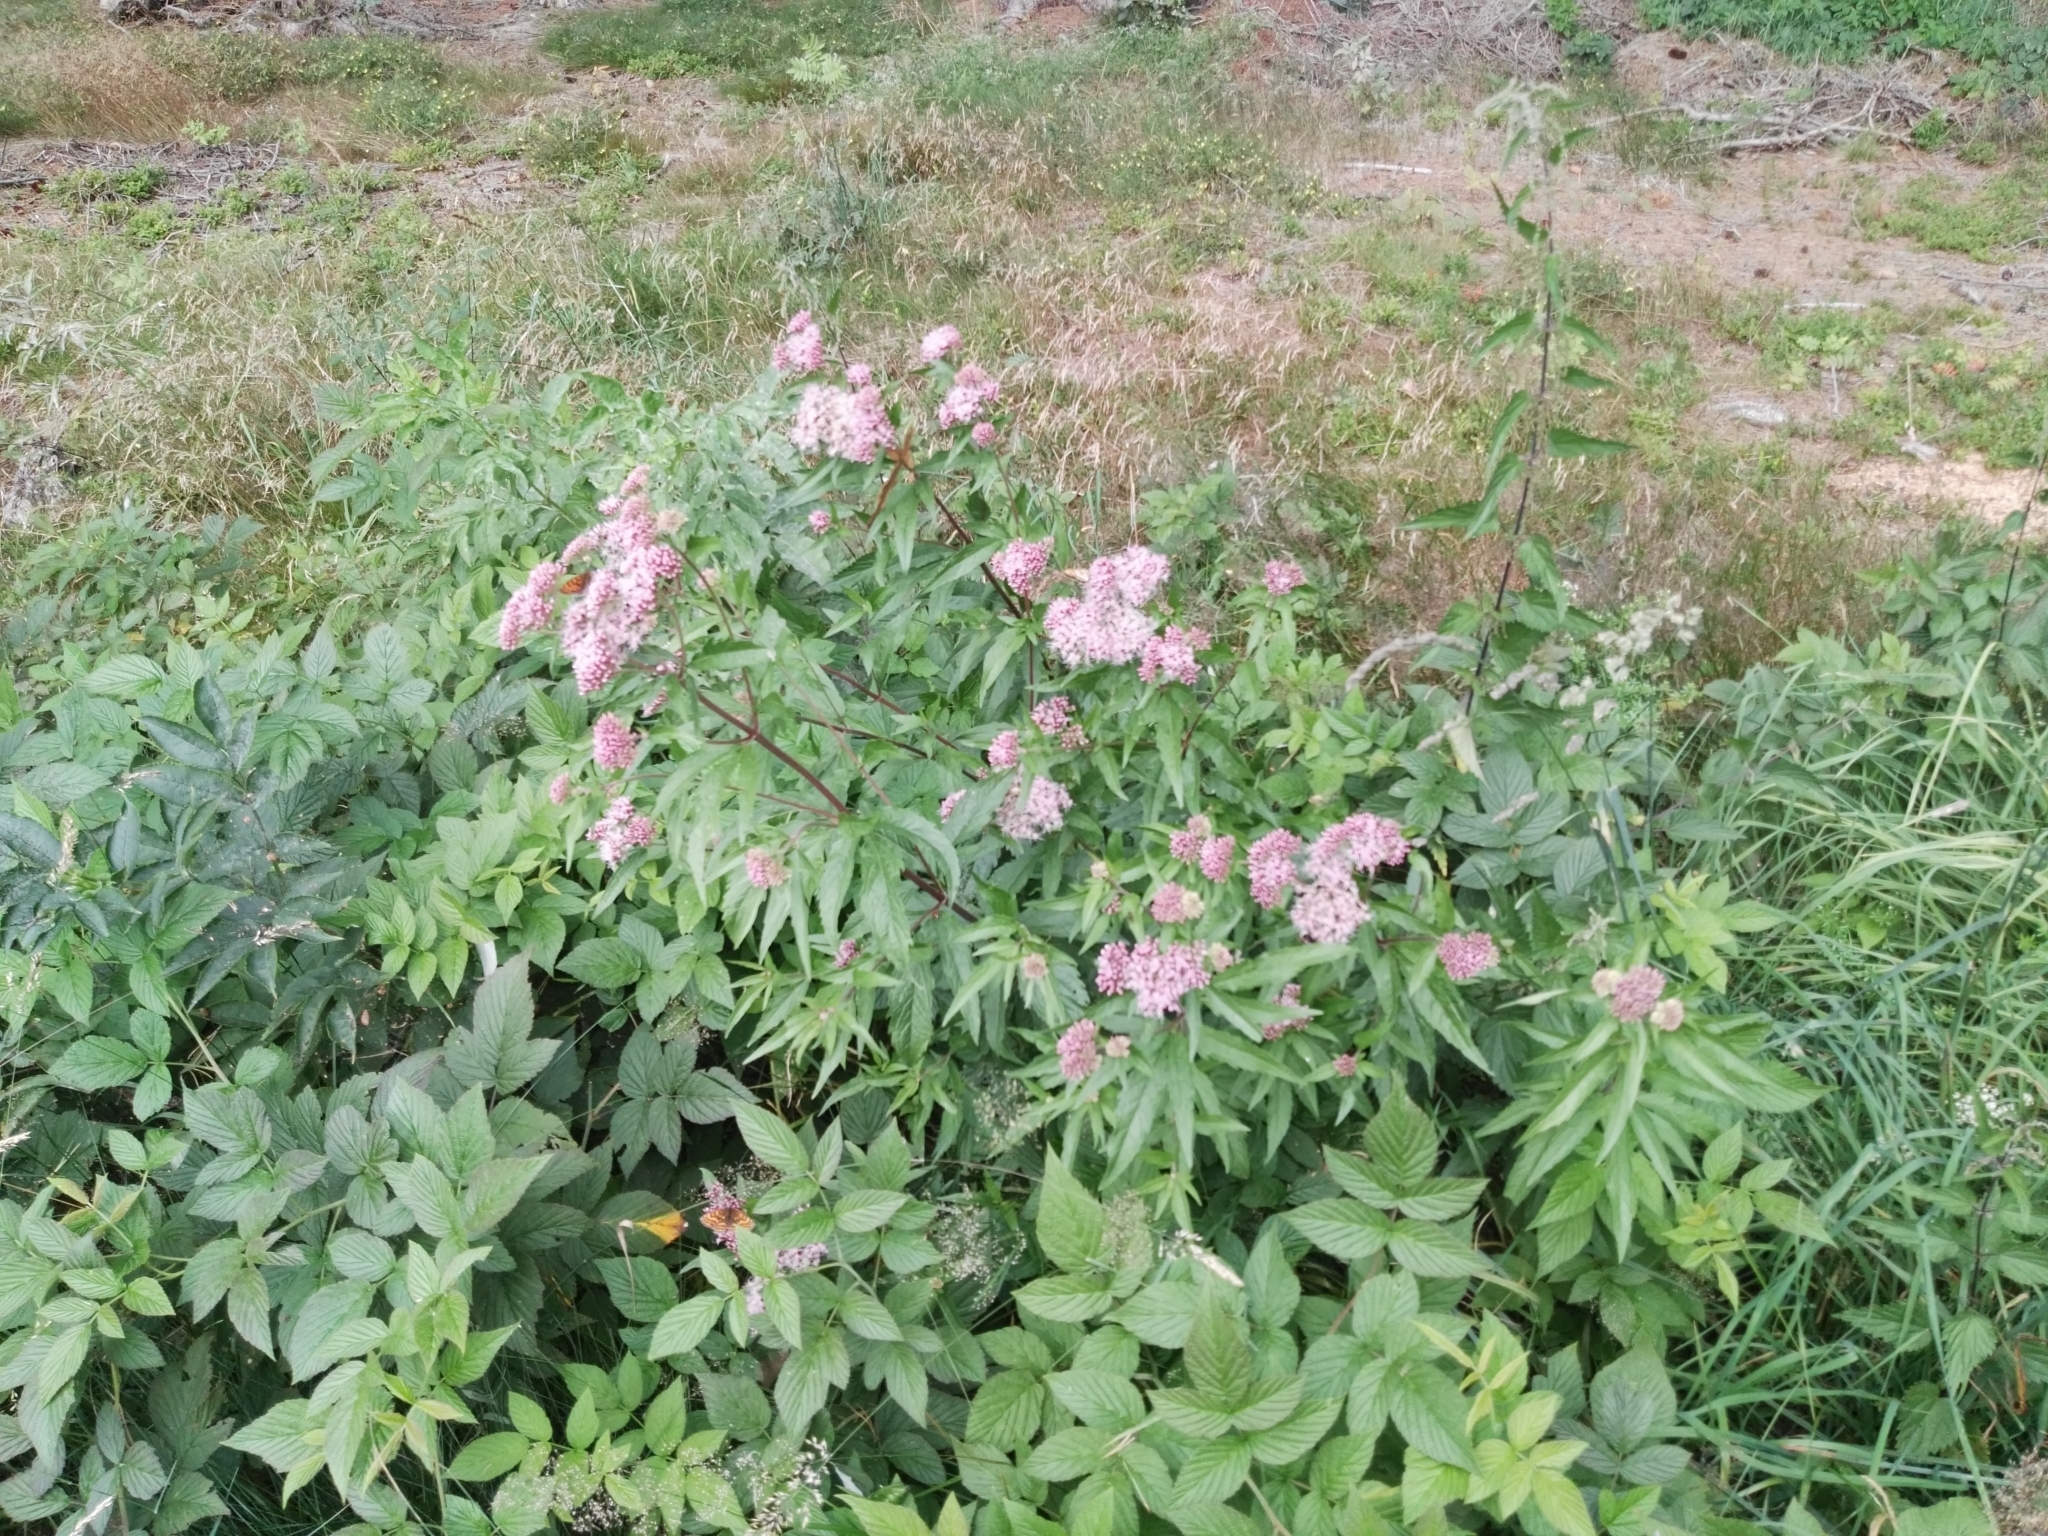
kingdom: Plantae
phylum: Tracheophyta
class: Magnoliopsida
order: Asterales
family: Asteraceae
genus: Eupatorium
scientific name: Eupatorium cannabinum
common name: Hemp-agrimony
